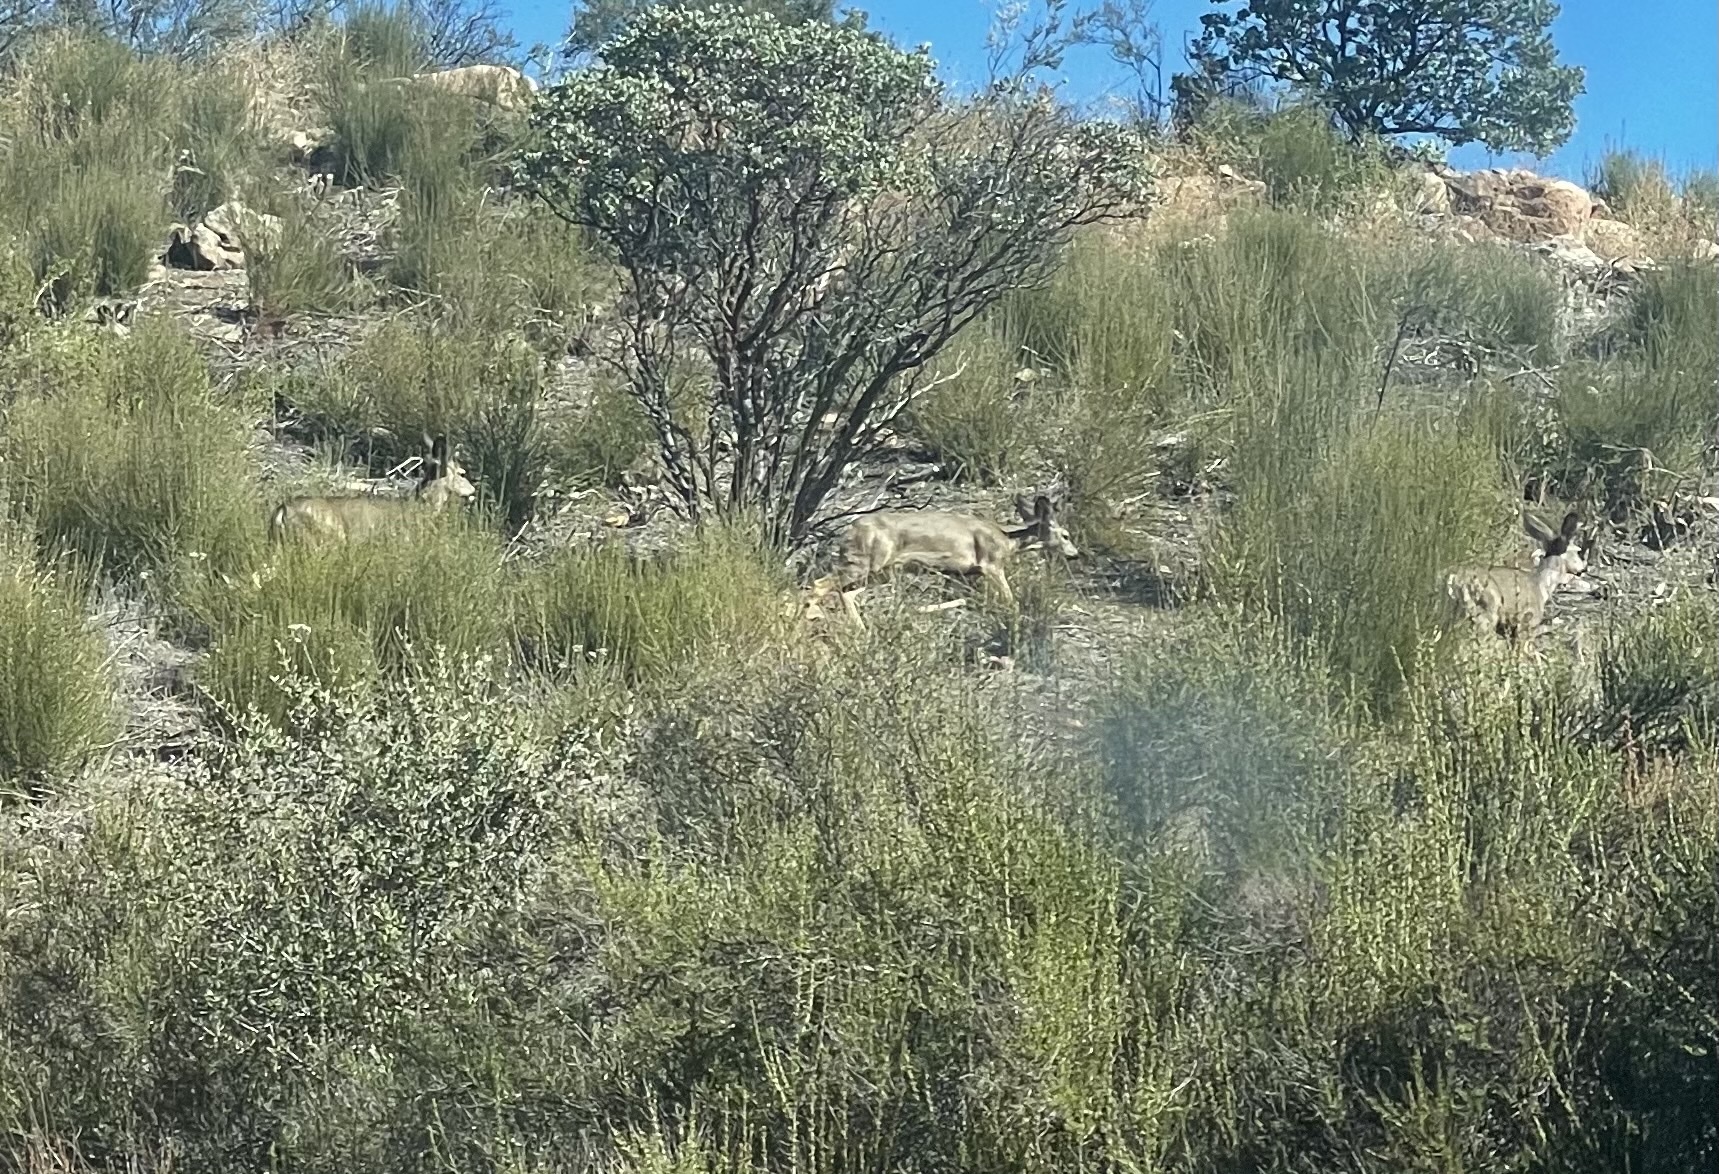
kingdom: Animalia
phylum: Chordata
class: Mammalia
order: Artiodactyla
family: Cervidae
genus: Odocoileus
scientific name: Odocoileus hemionus
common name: Mule deer
